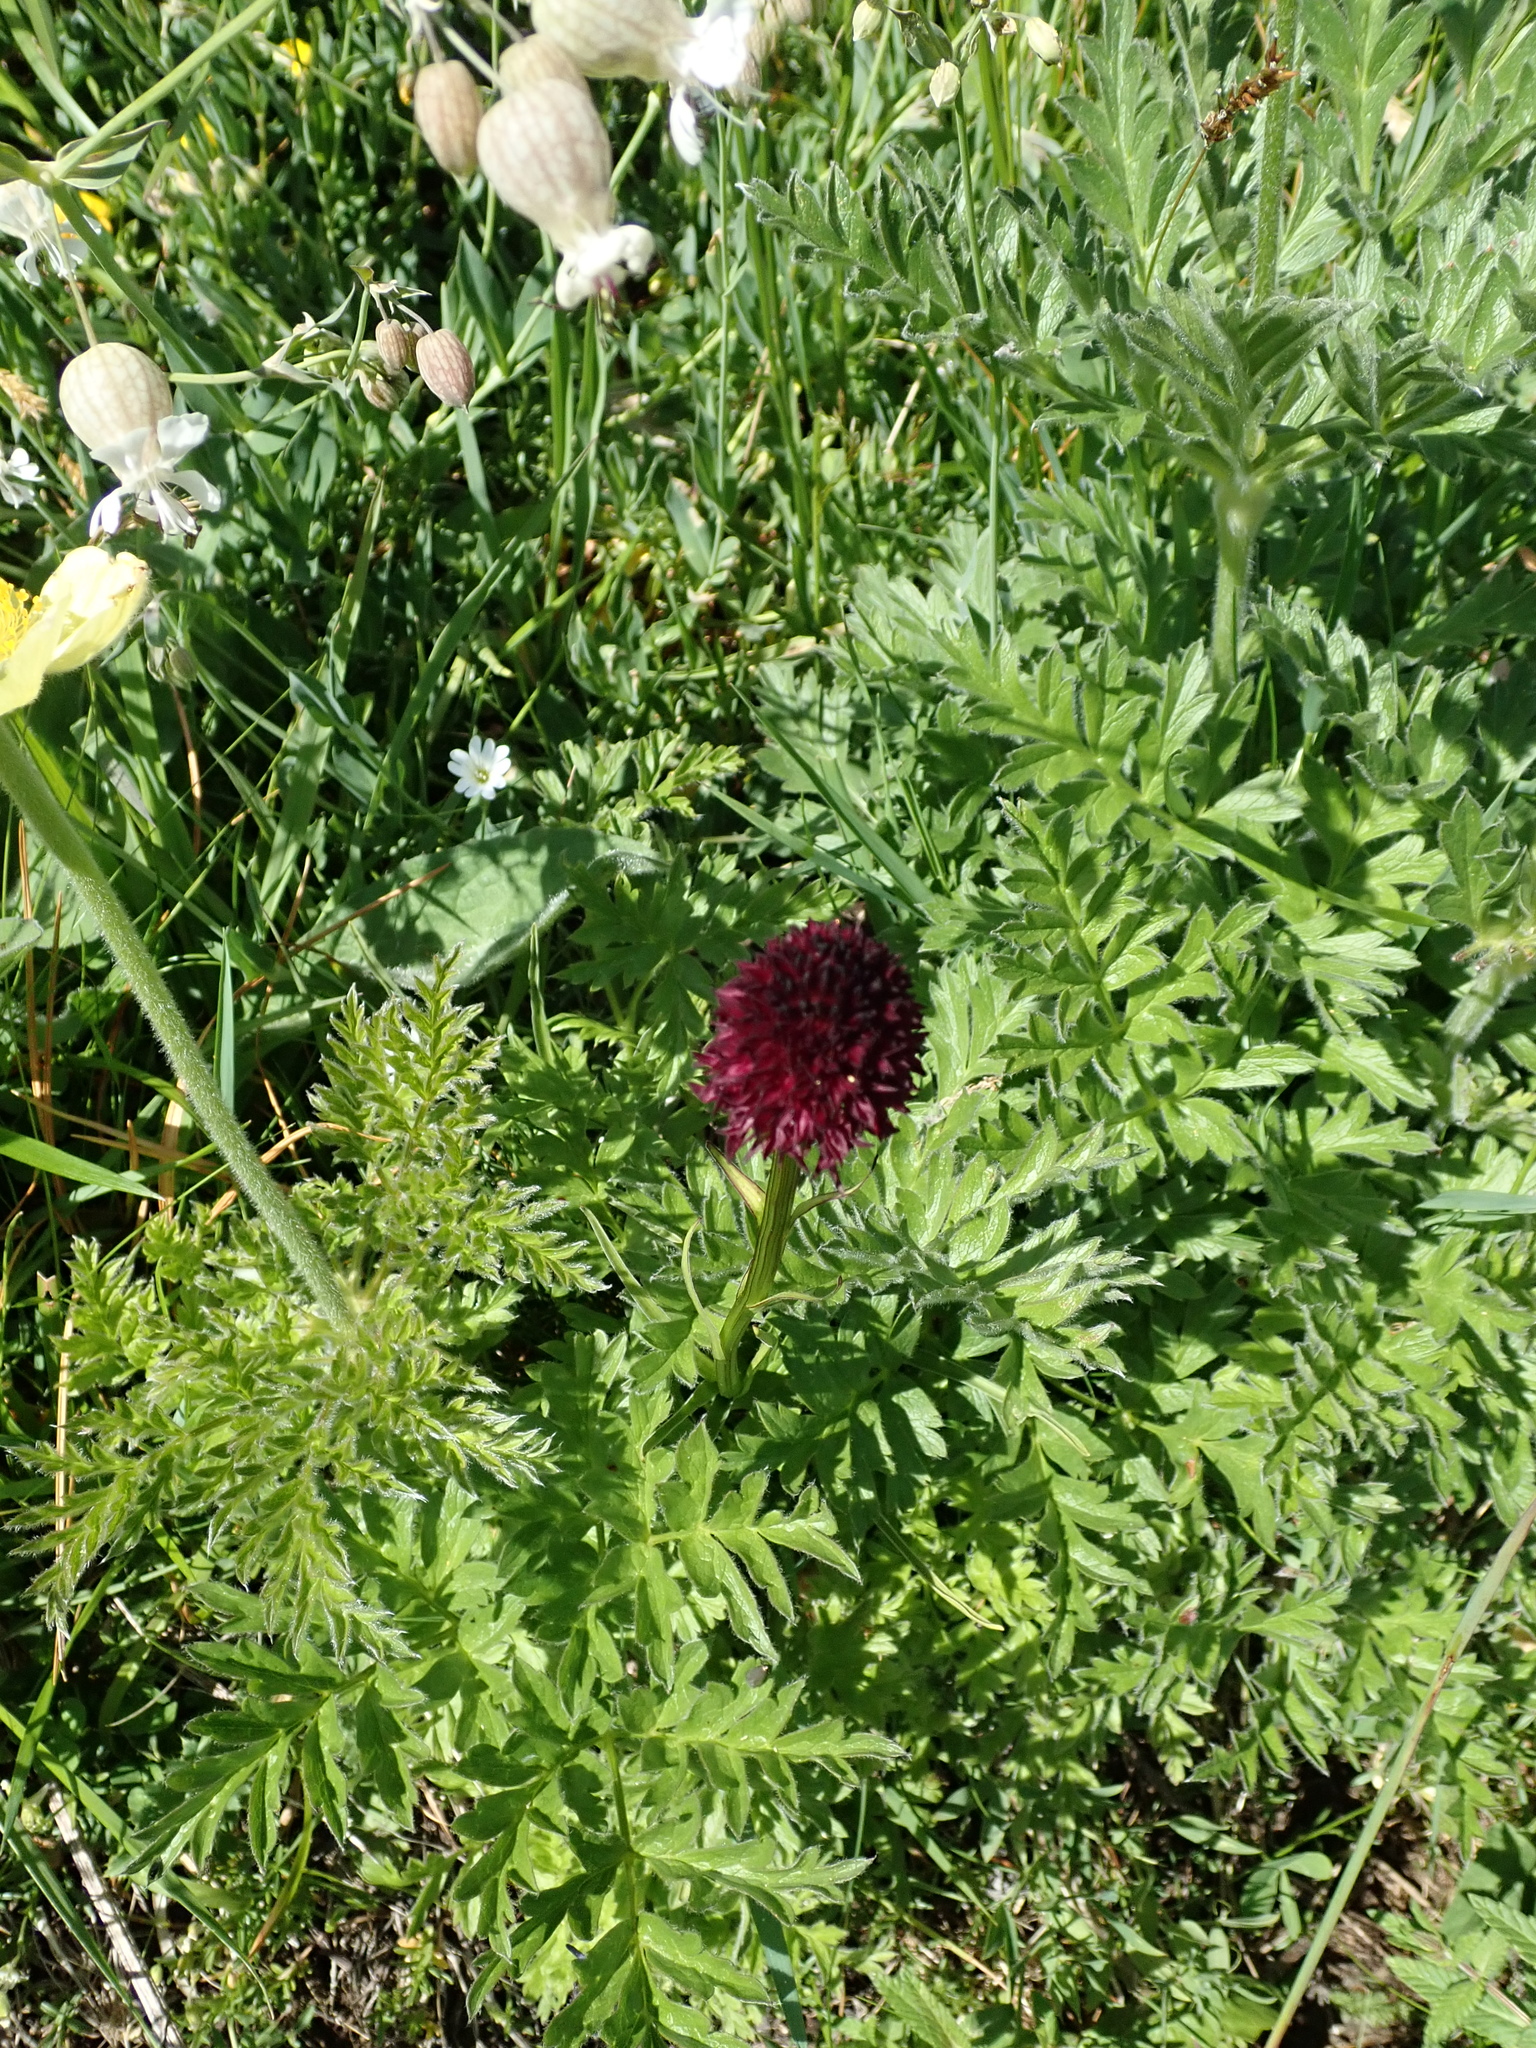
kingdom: Plantae
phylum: Tracheophyta
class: Liliopsida
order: Asparagales
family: Orchidaceae
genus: Gymnadenia
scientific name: Gymnadenia rhellicani
